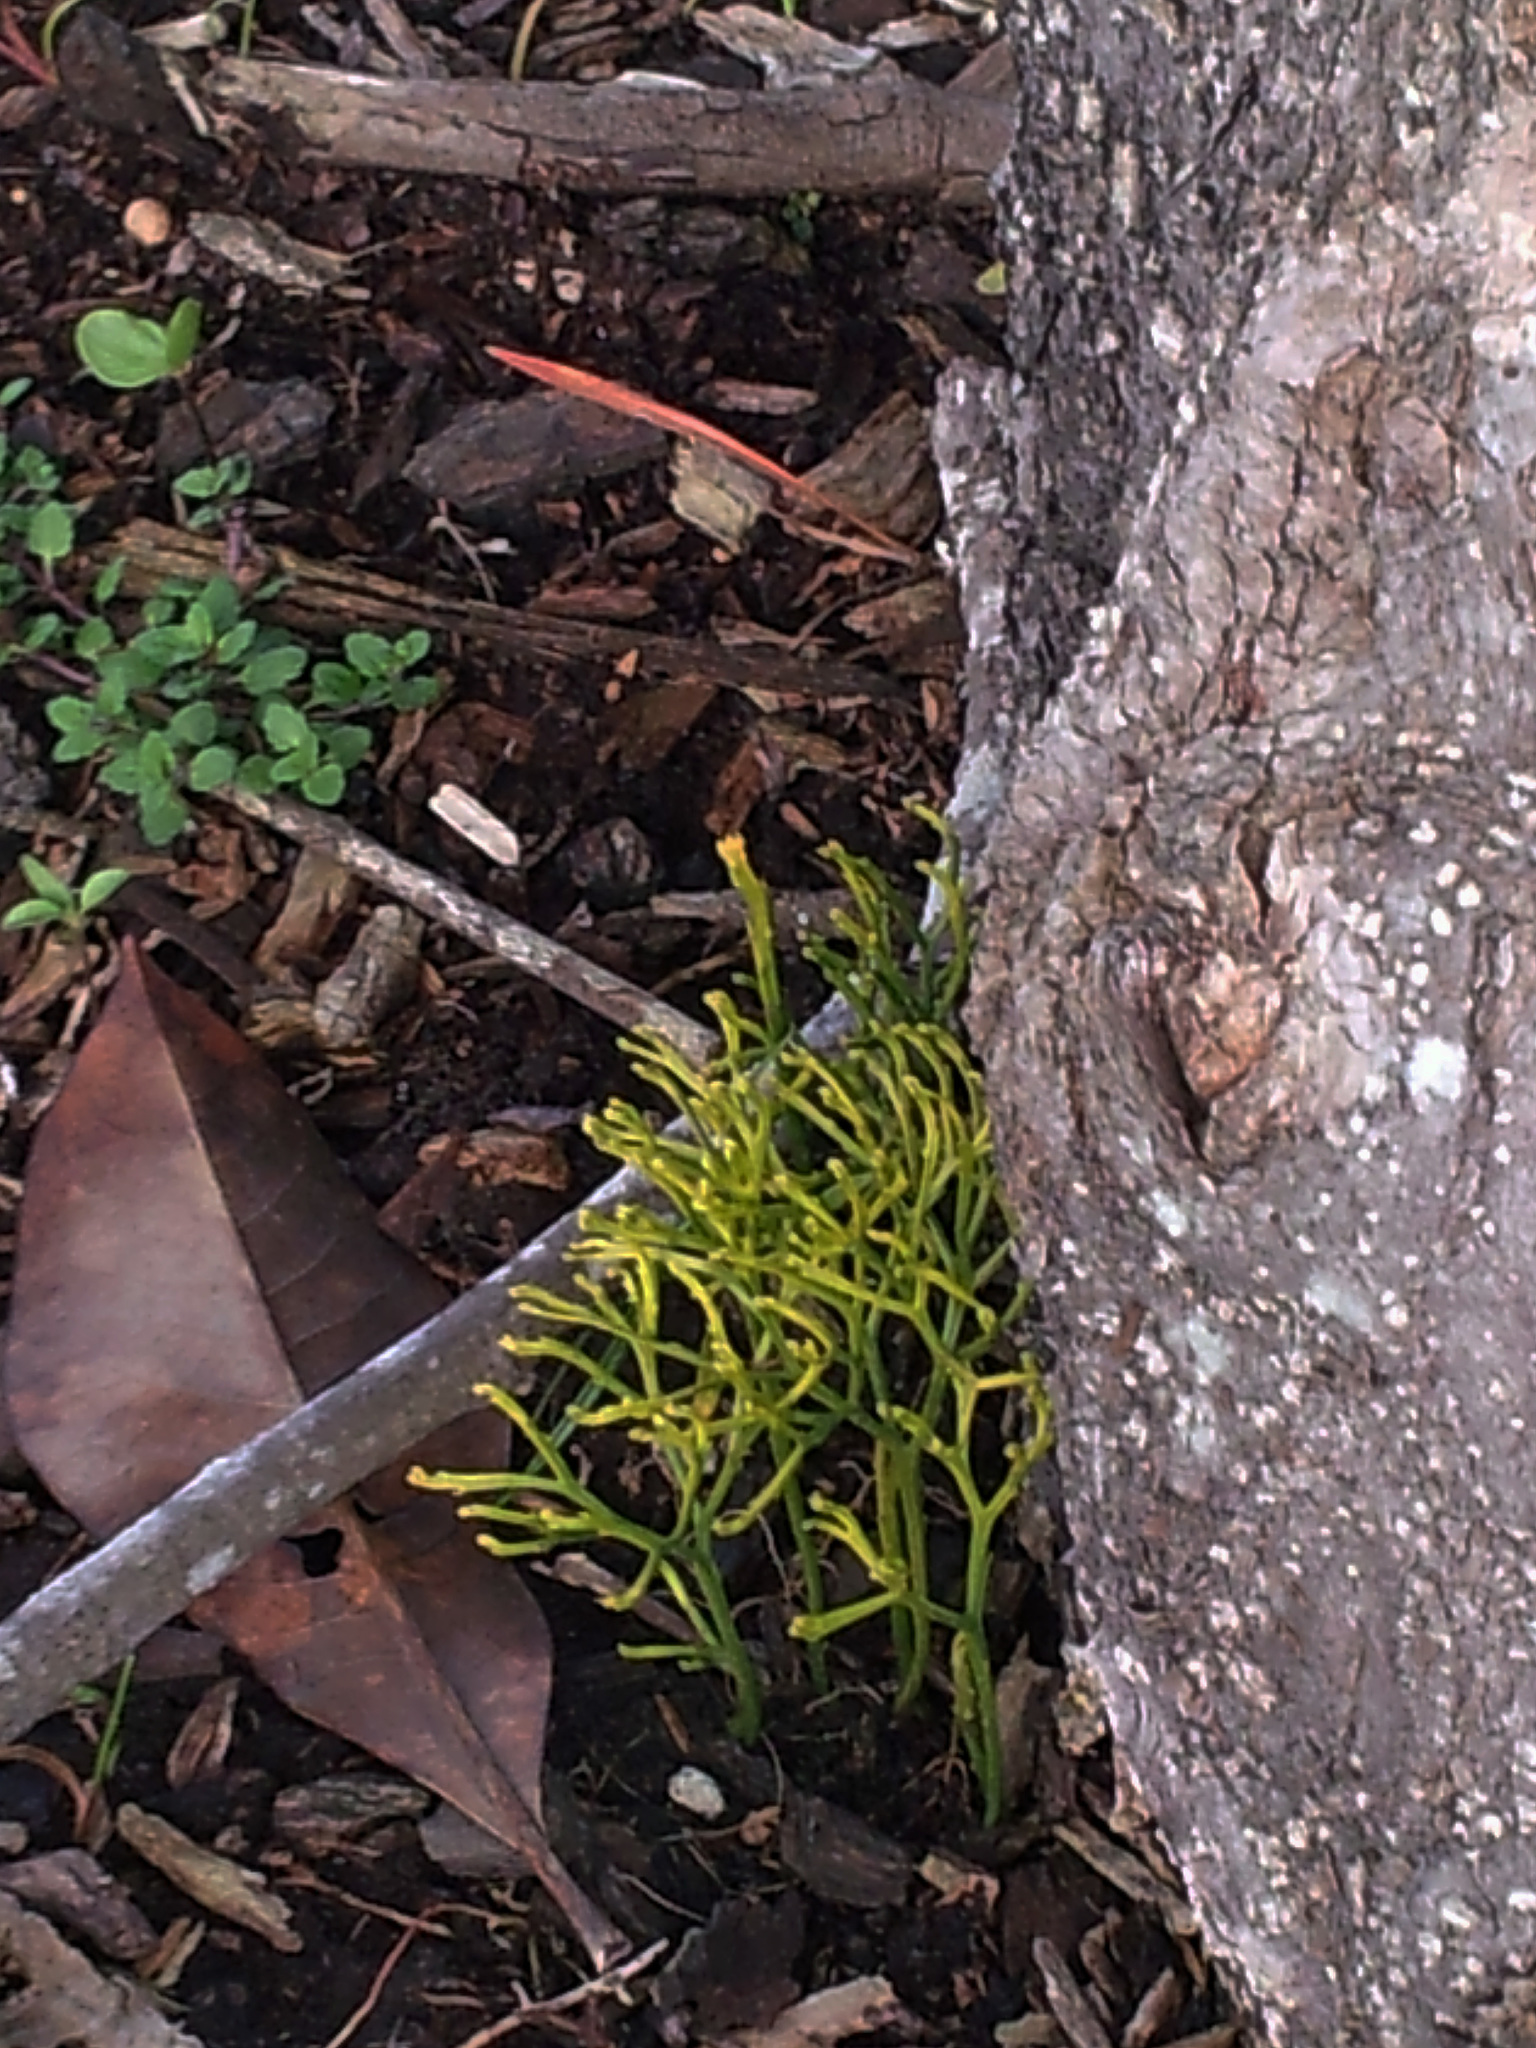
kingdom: Plantae
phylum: Tracheophyta
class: Polypodiopsida
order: Psilotales
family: Psilotaceae
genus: Psilotum
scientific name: Psilotum nudum
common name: Skeleton fork fern
